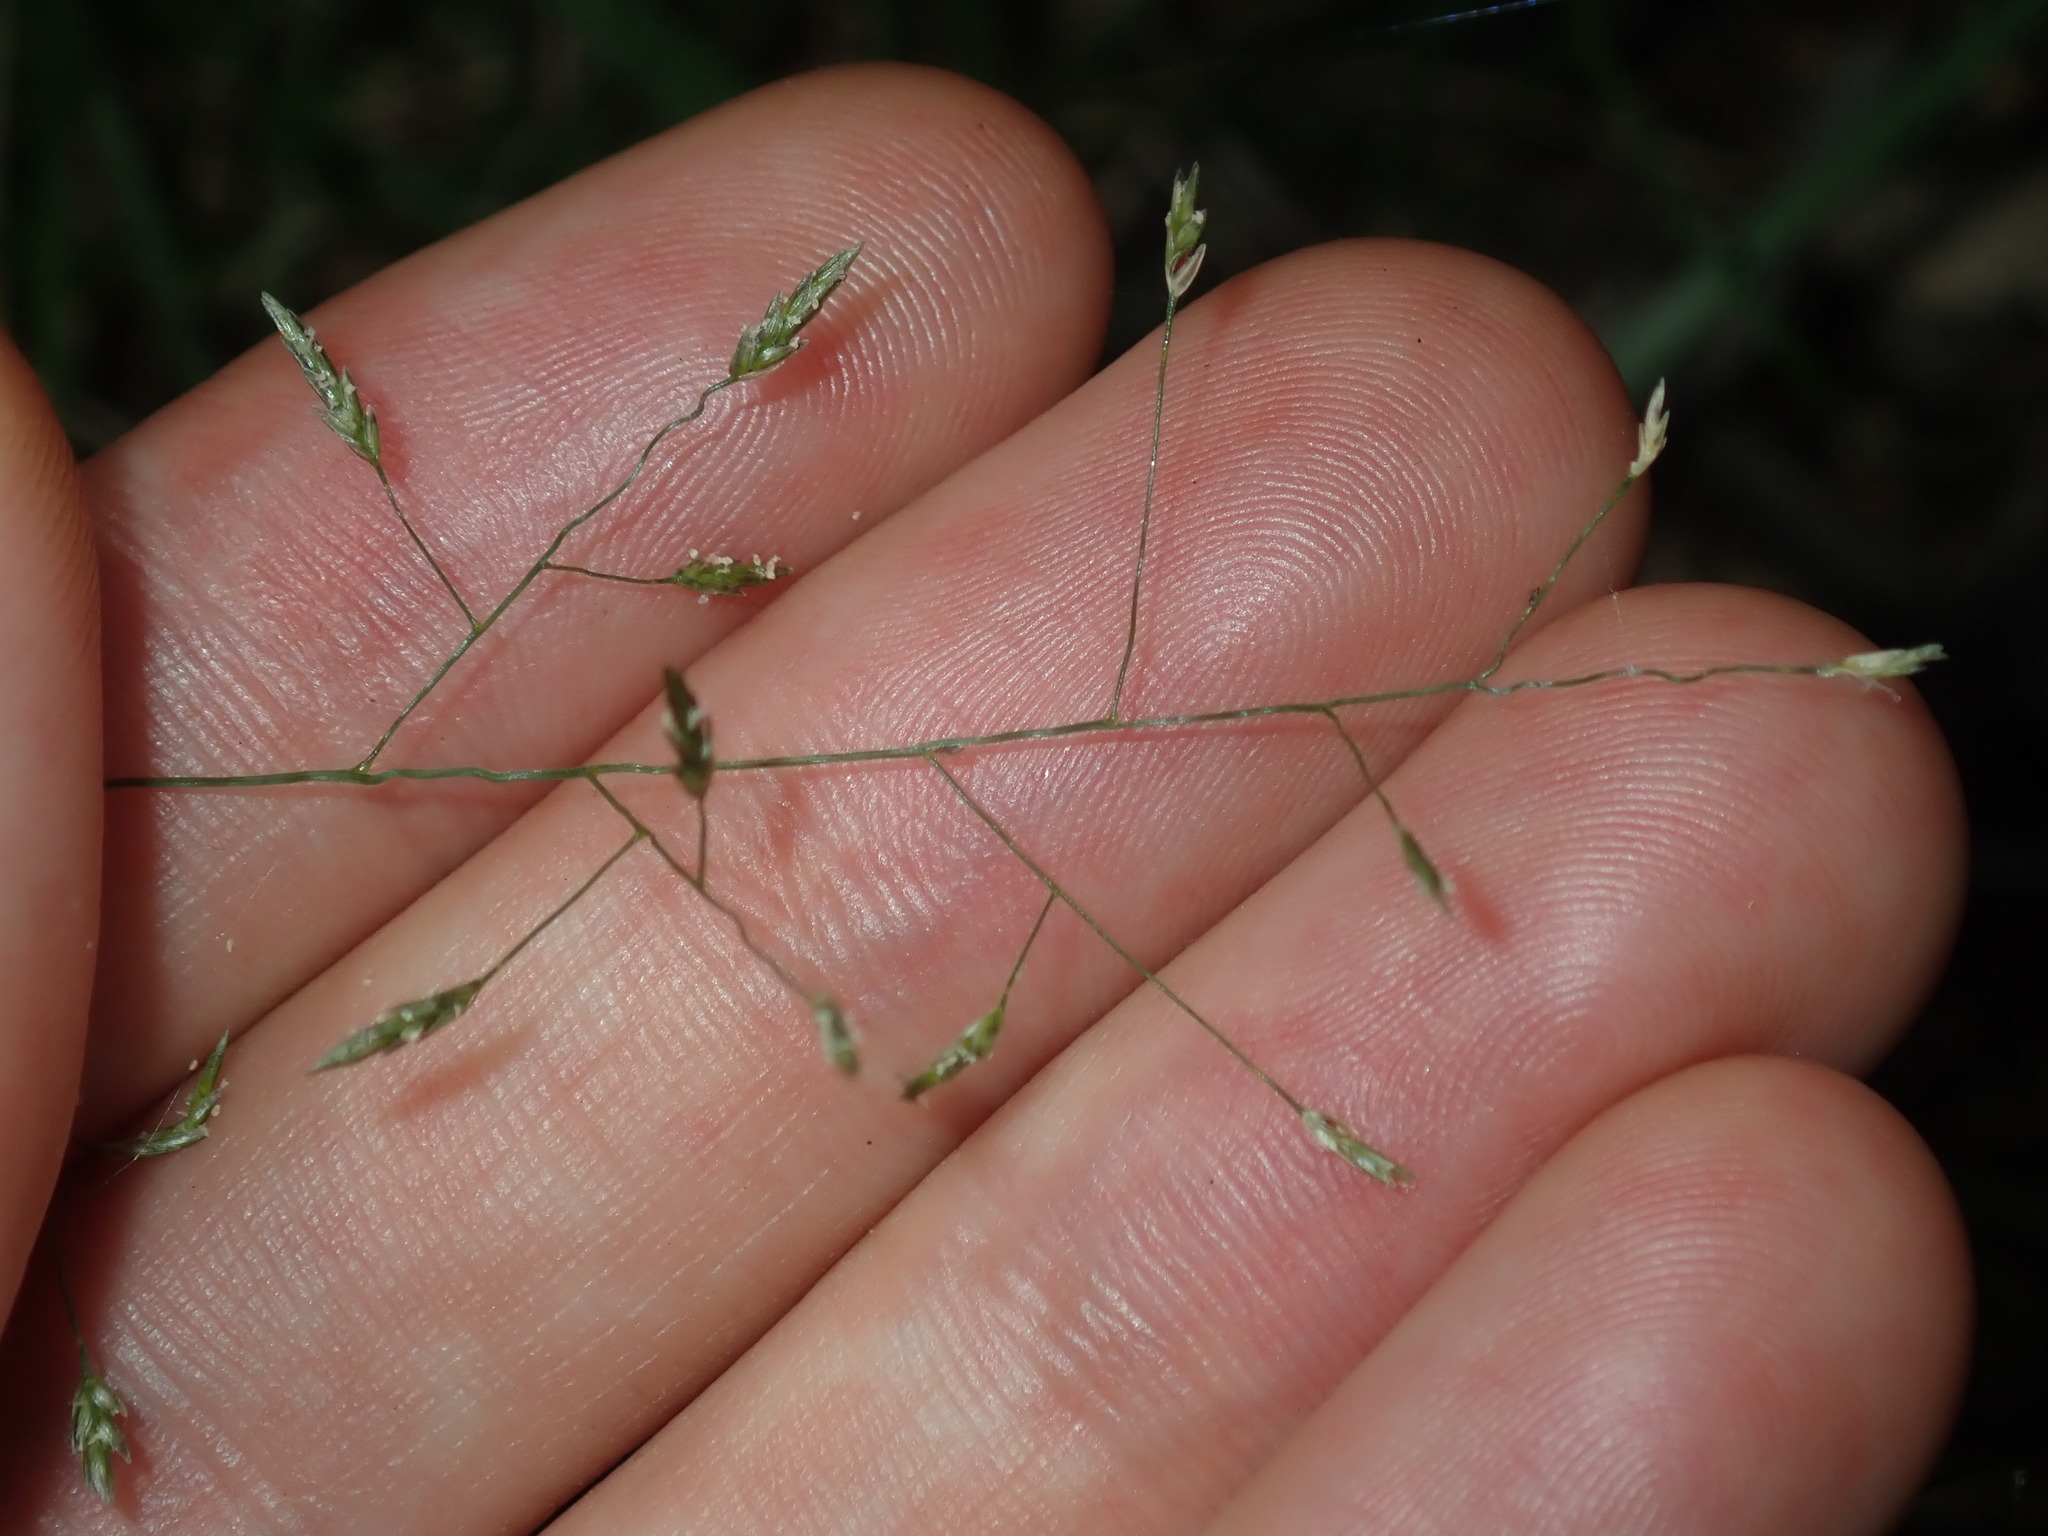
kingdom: Plantae
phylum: Tracheophyta
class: Liliopsida
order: Poales
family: Poaceae
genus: Eragrostis
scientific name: Eragrostis leptostachya
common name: Australian lovegrass
